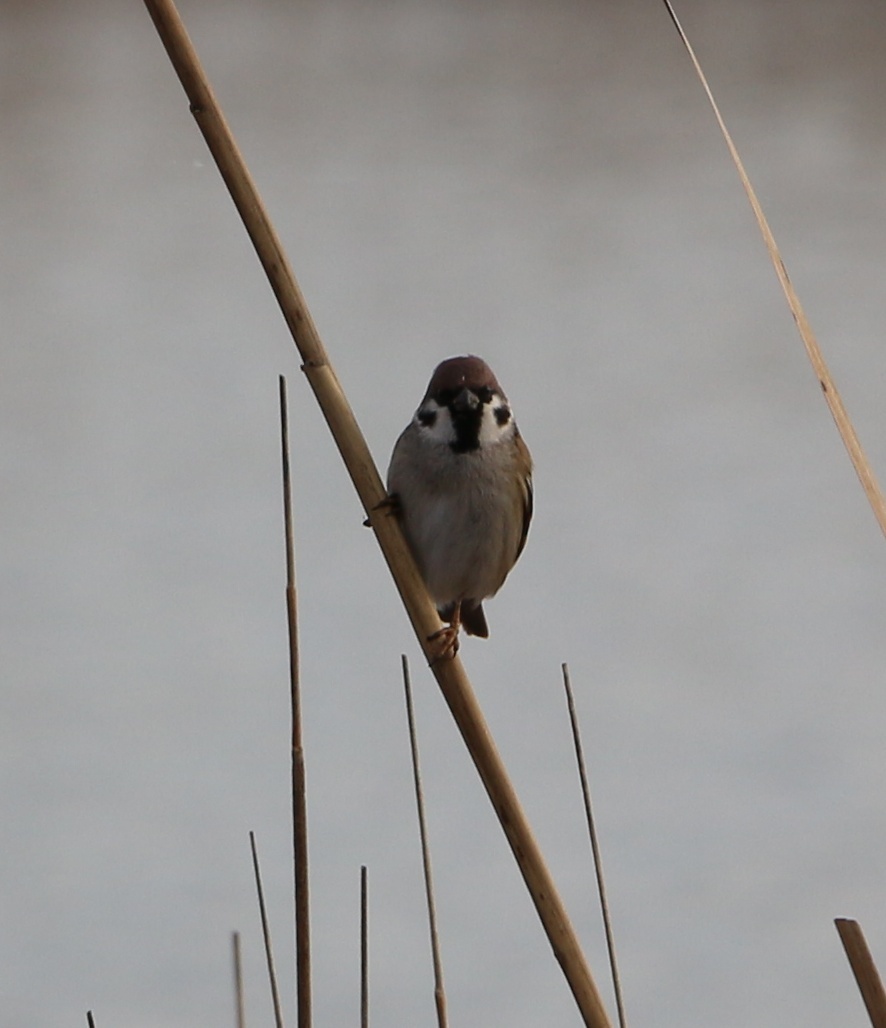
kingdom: Animalia
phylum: Chordata
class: Aves
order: Passeriformes
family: Passeridae
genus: Passer
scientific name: Passer montanus
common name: Eurasian tree sparrow
